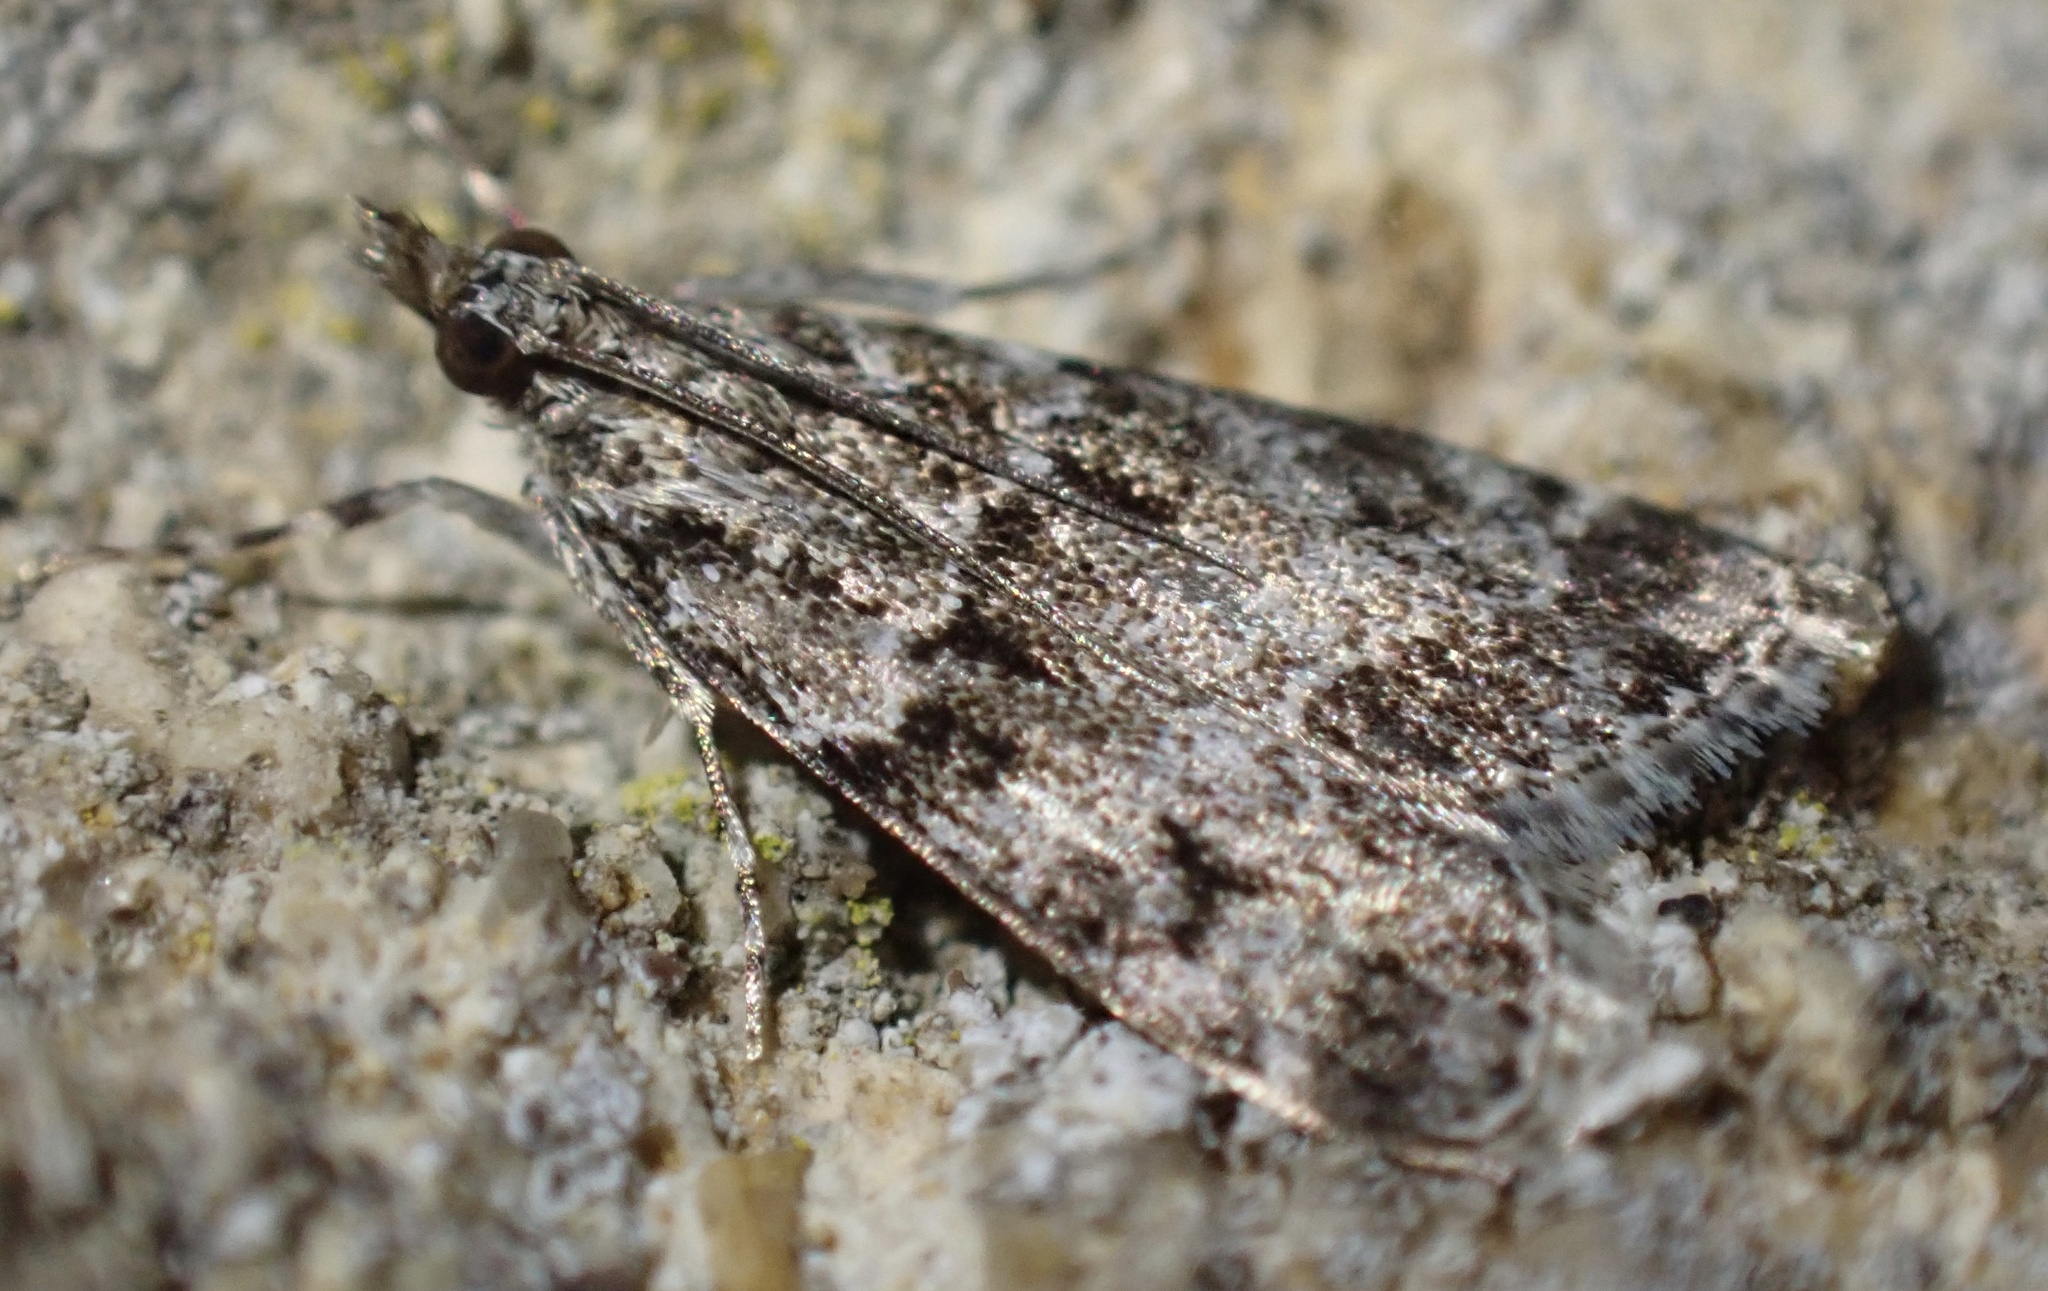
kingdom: Animalia
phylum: Arthropoda
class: Insecta
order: Lepidoptera
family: Crambidae
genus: Eudonia
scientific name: Eudonia mercurella
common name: Small grey
